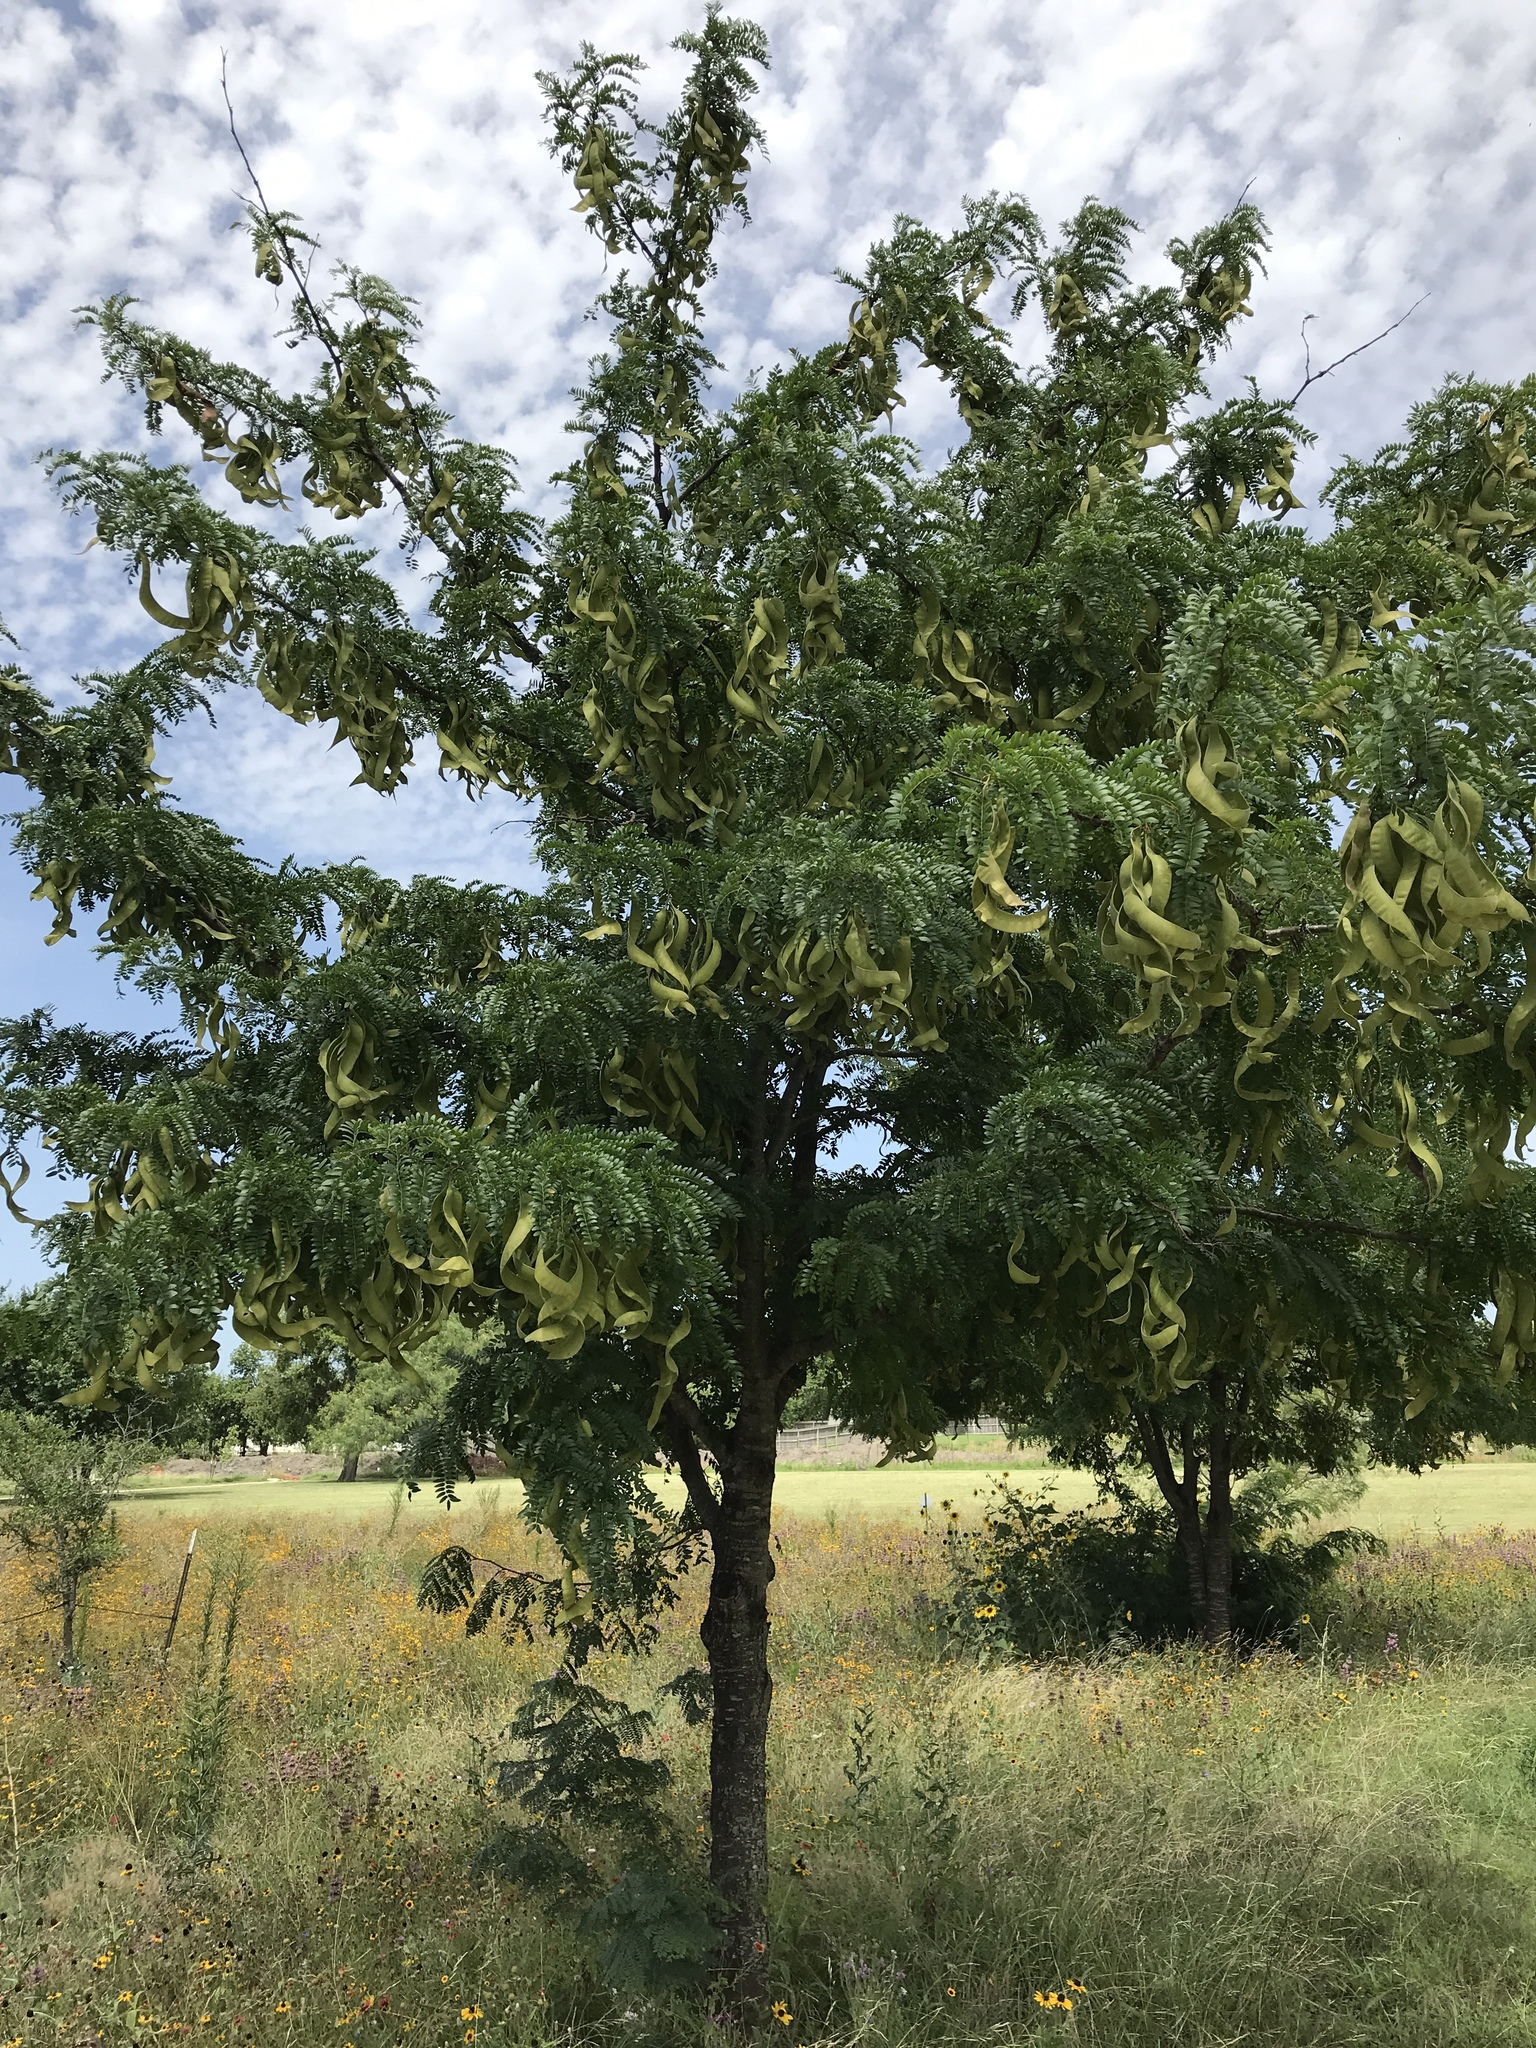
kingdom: Plantae
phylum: Tracheophyta
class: Magnoliopsida
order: Fabales
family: Fabaceae
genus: Gleditsia
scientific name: Gleditsia triacanthos
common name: Common honeylocust
